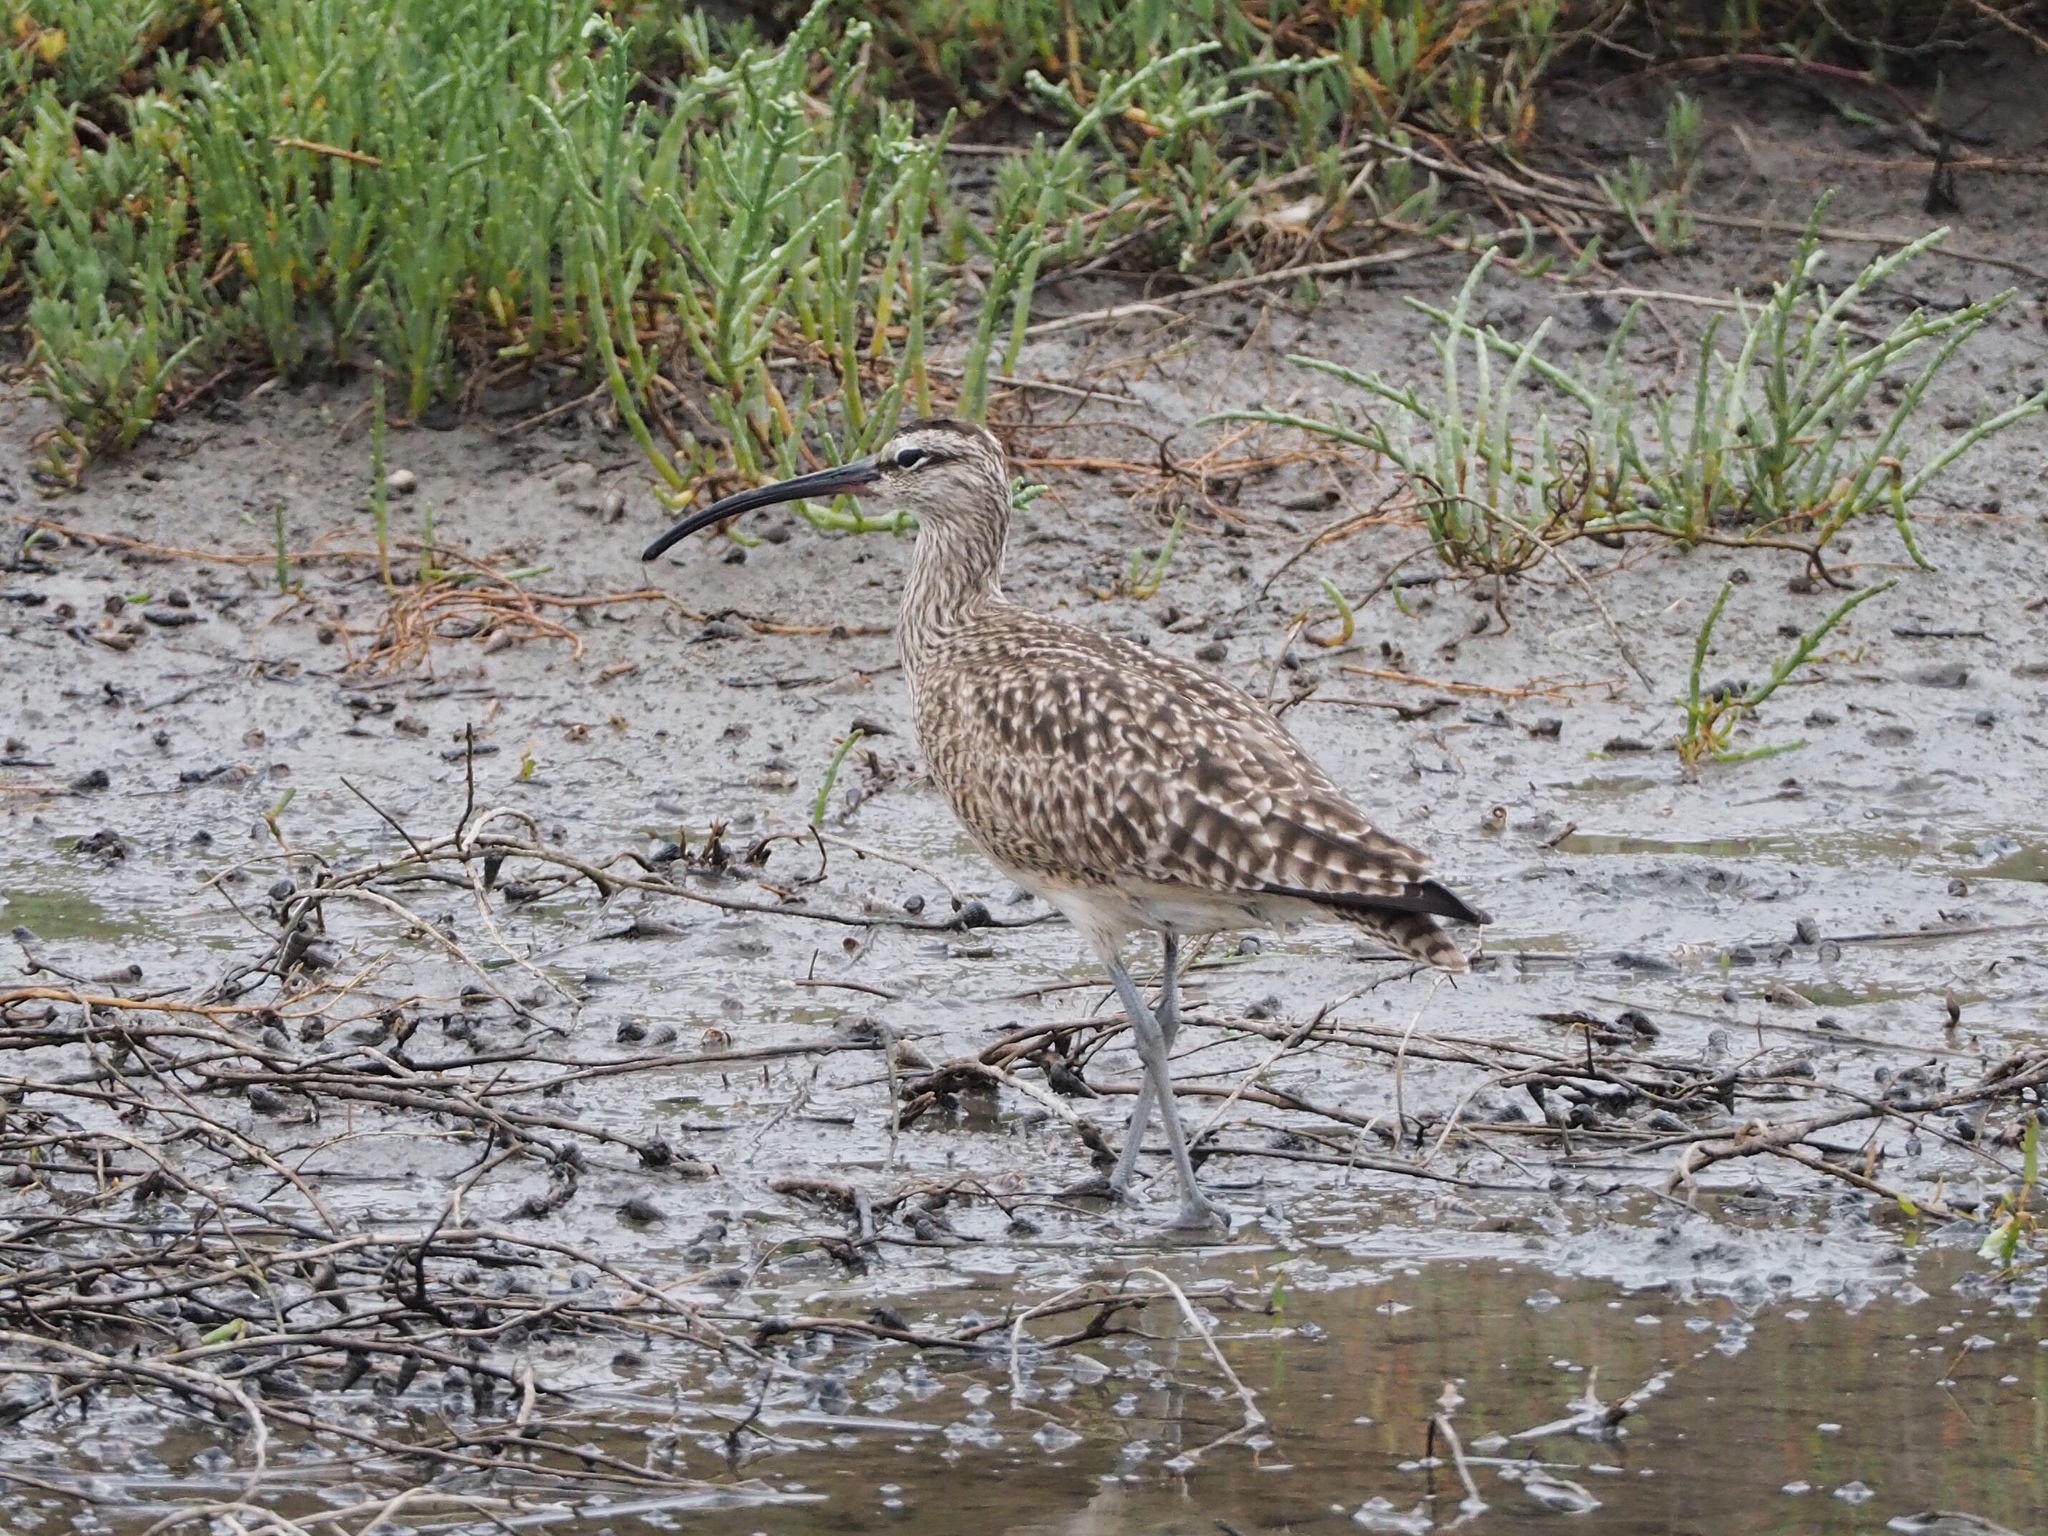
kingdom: Animalia
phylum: Chordata
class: Aves
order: Charadriiformes
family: Scolopacidae
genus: Numenius
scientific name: Numenius phaeopus
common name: Whimbrel
